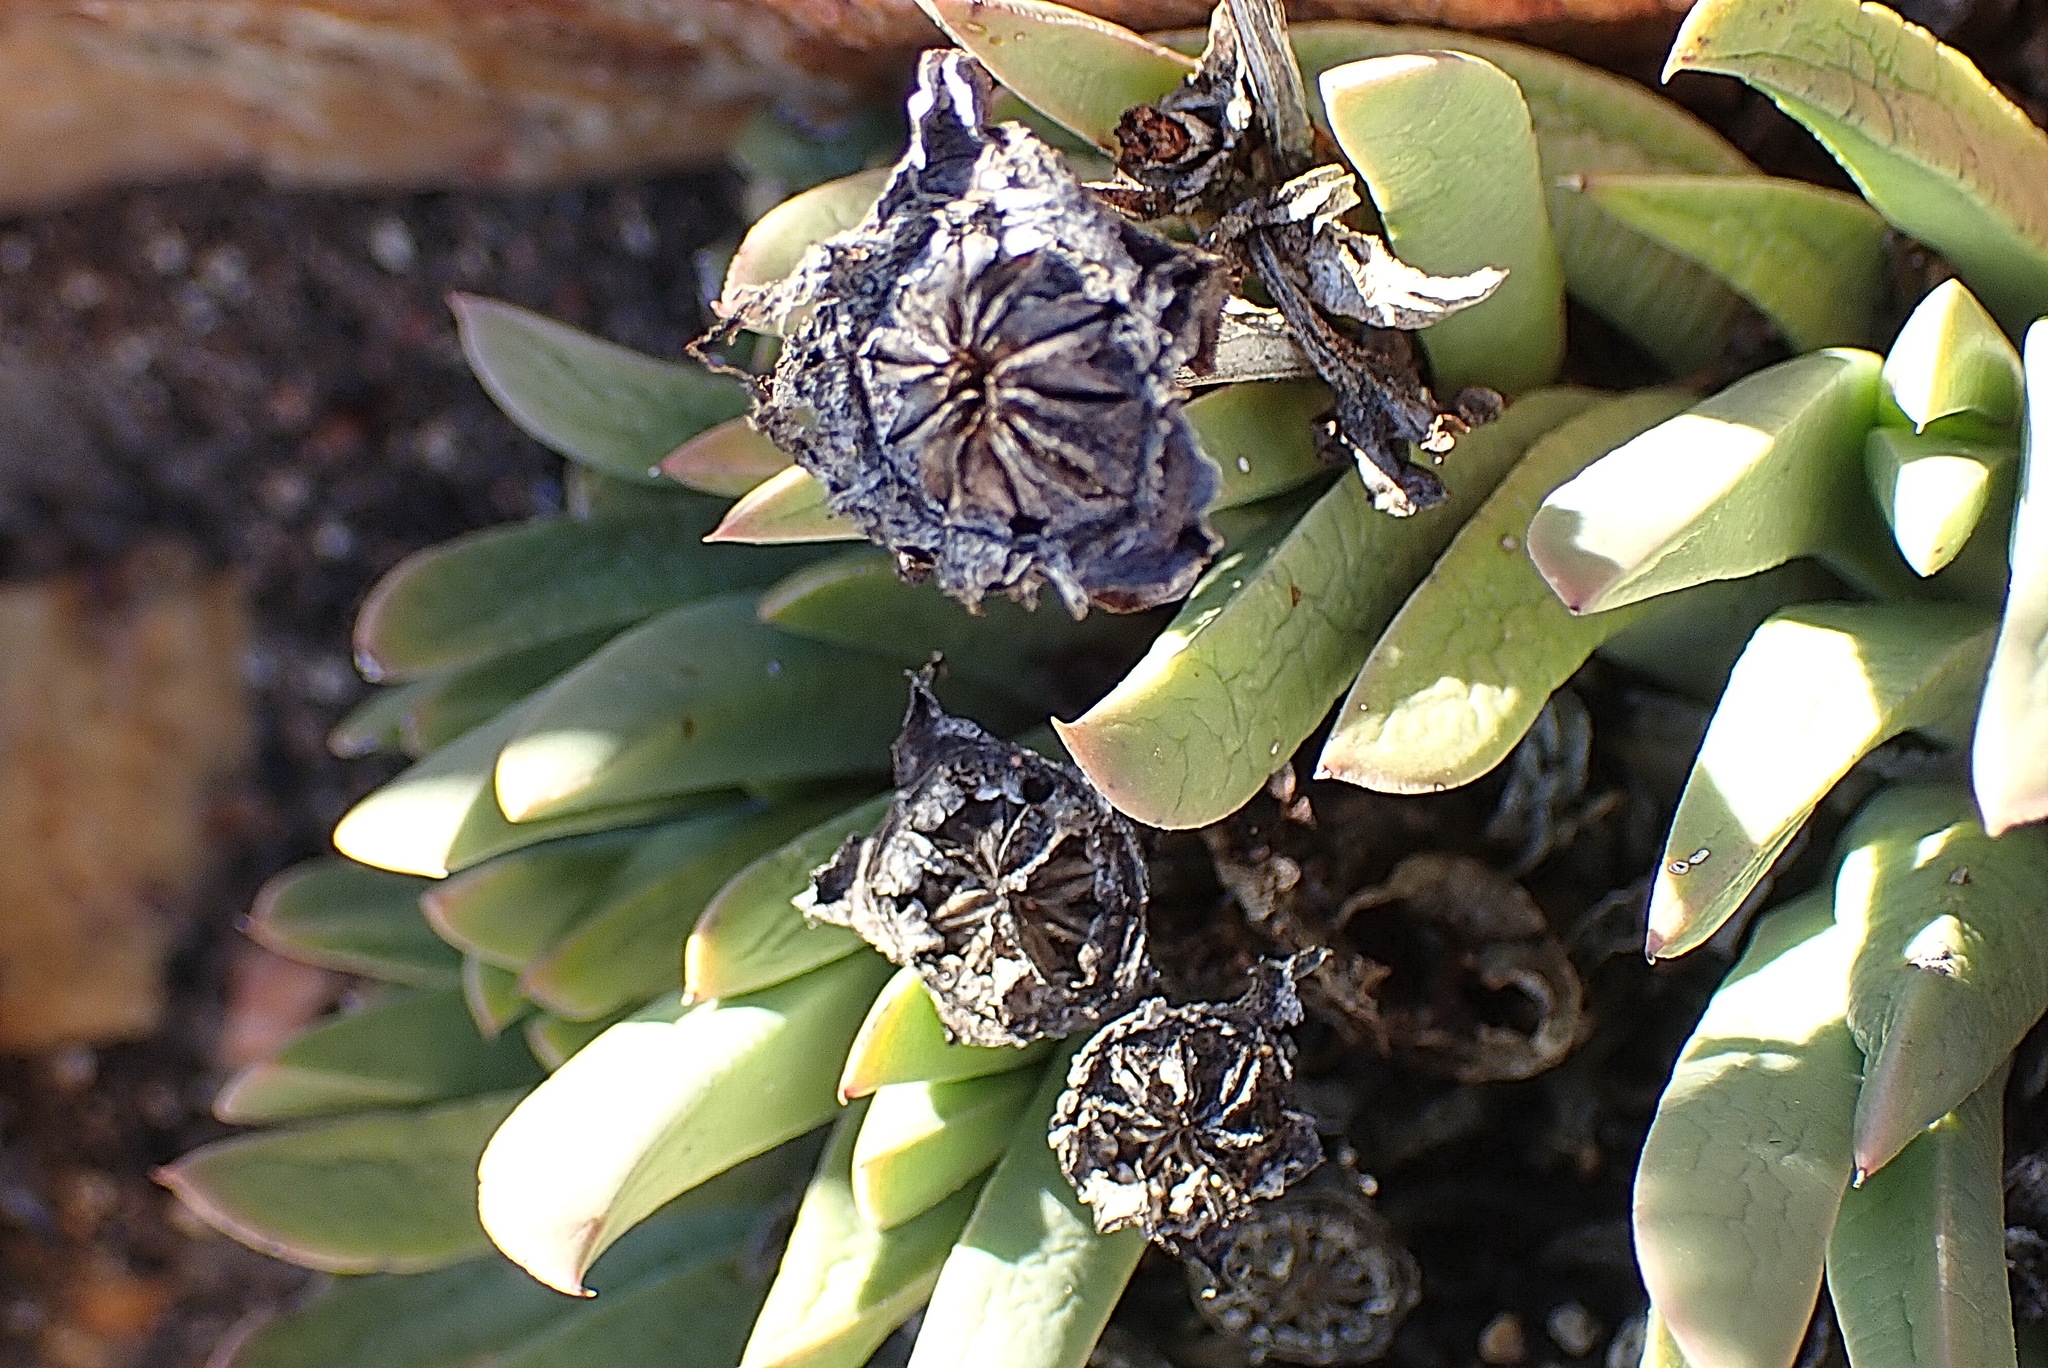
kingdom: Plantae
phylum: Tracheophyta
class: Magnoliopsida
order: Caryophyllales
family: Aizoaceae
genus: Machairophyllum
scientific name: Machairophyllum albidum
